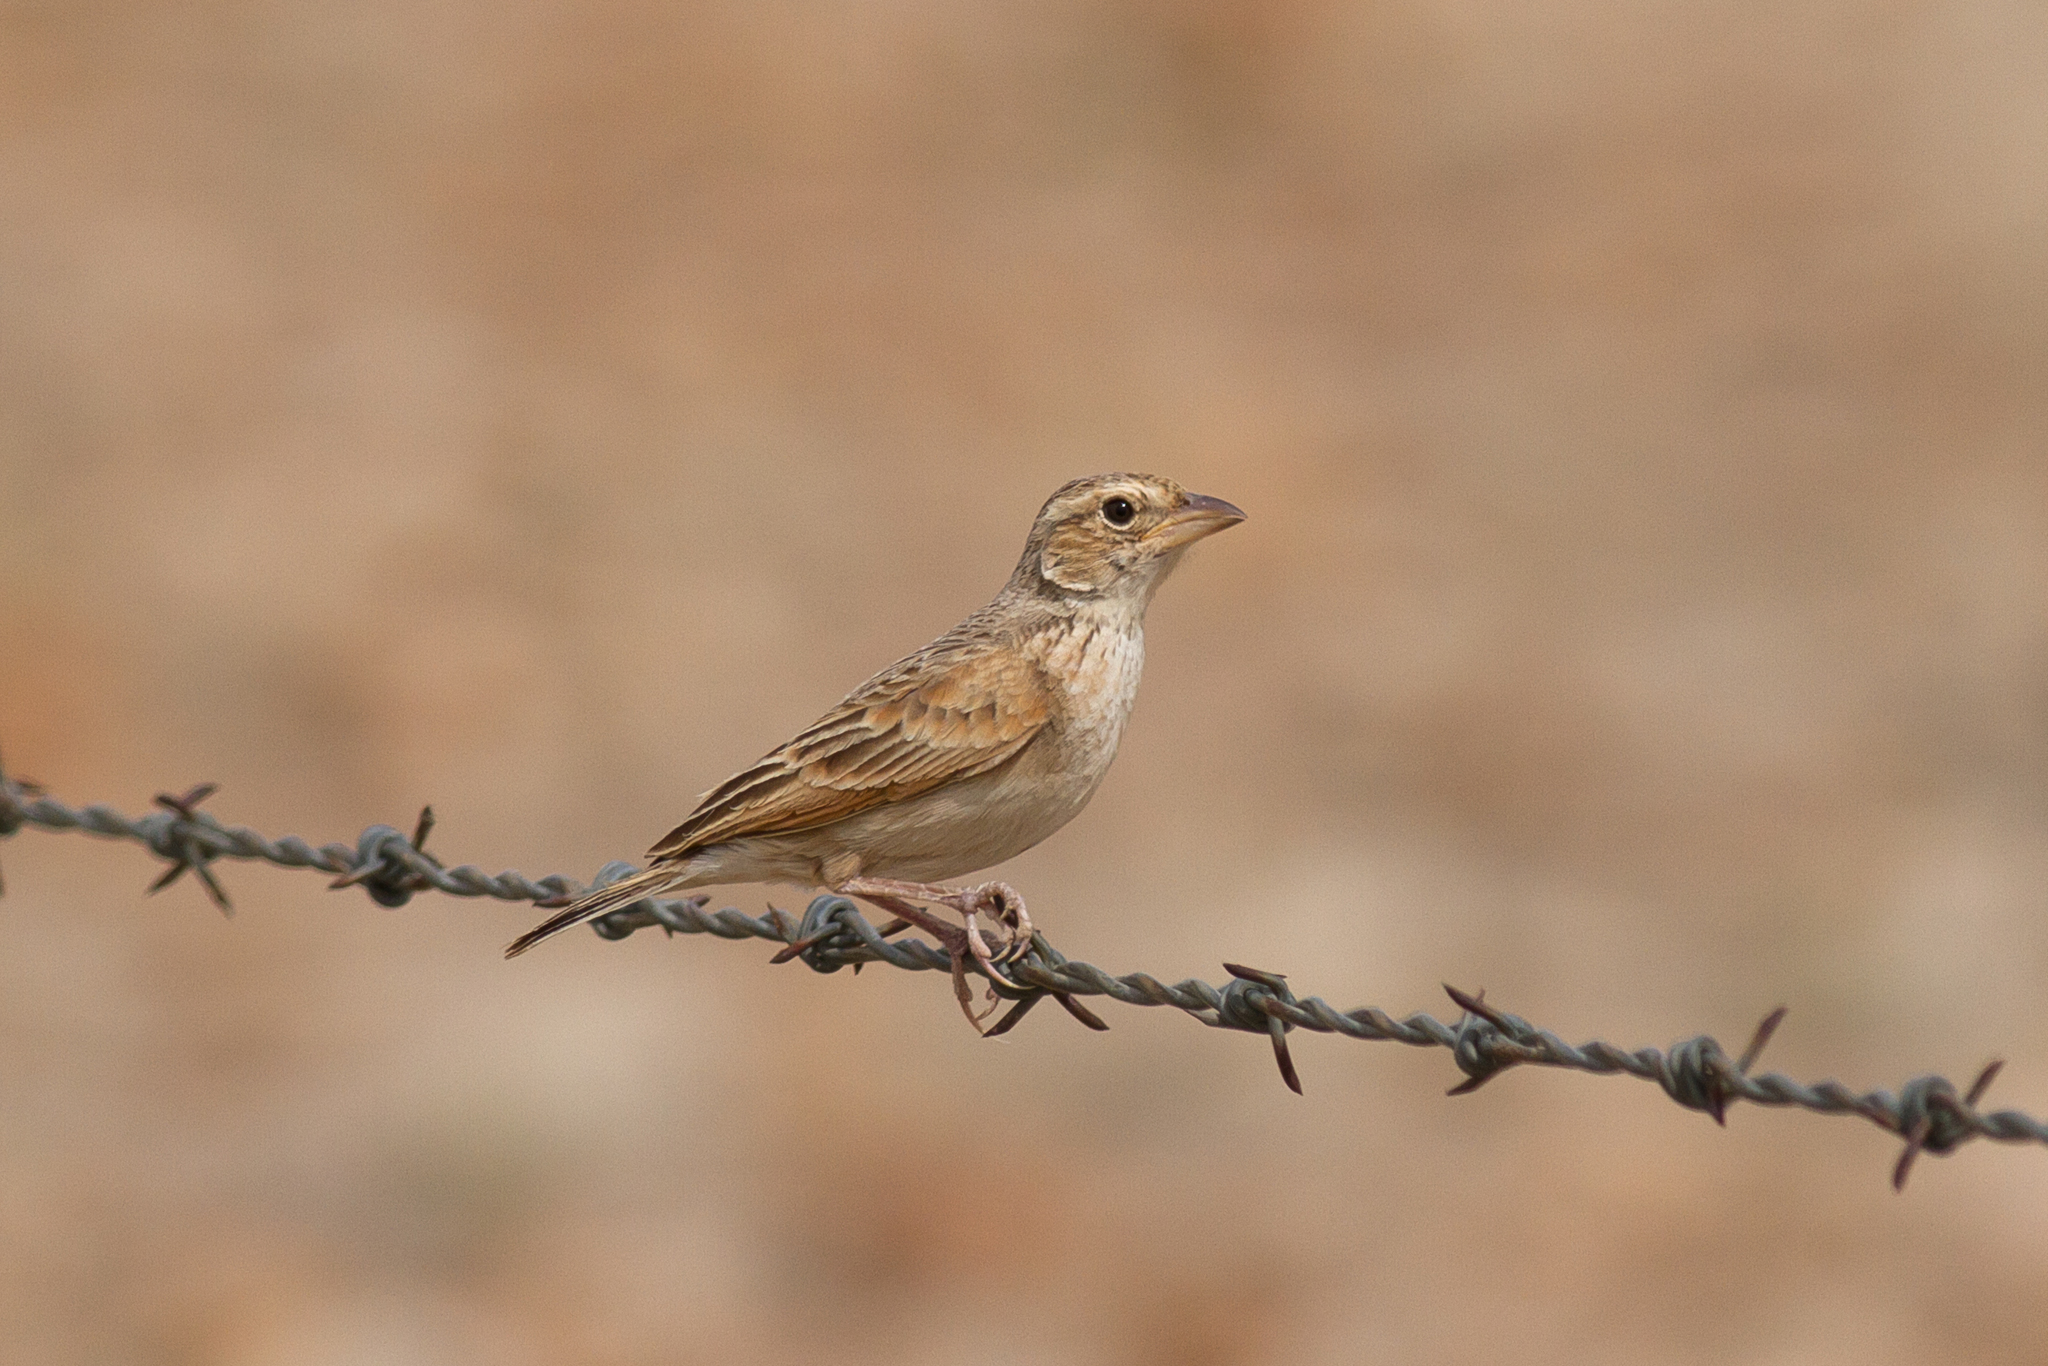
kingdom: Animalia
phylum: Chordata
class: Aves
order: Passeriformes
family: Alaudidae
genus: Mirafra
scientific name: Mirafra javanica
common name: Horsfield's bush lark
